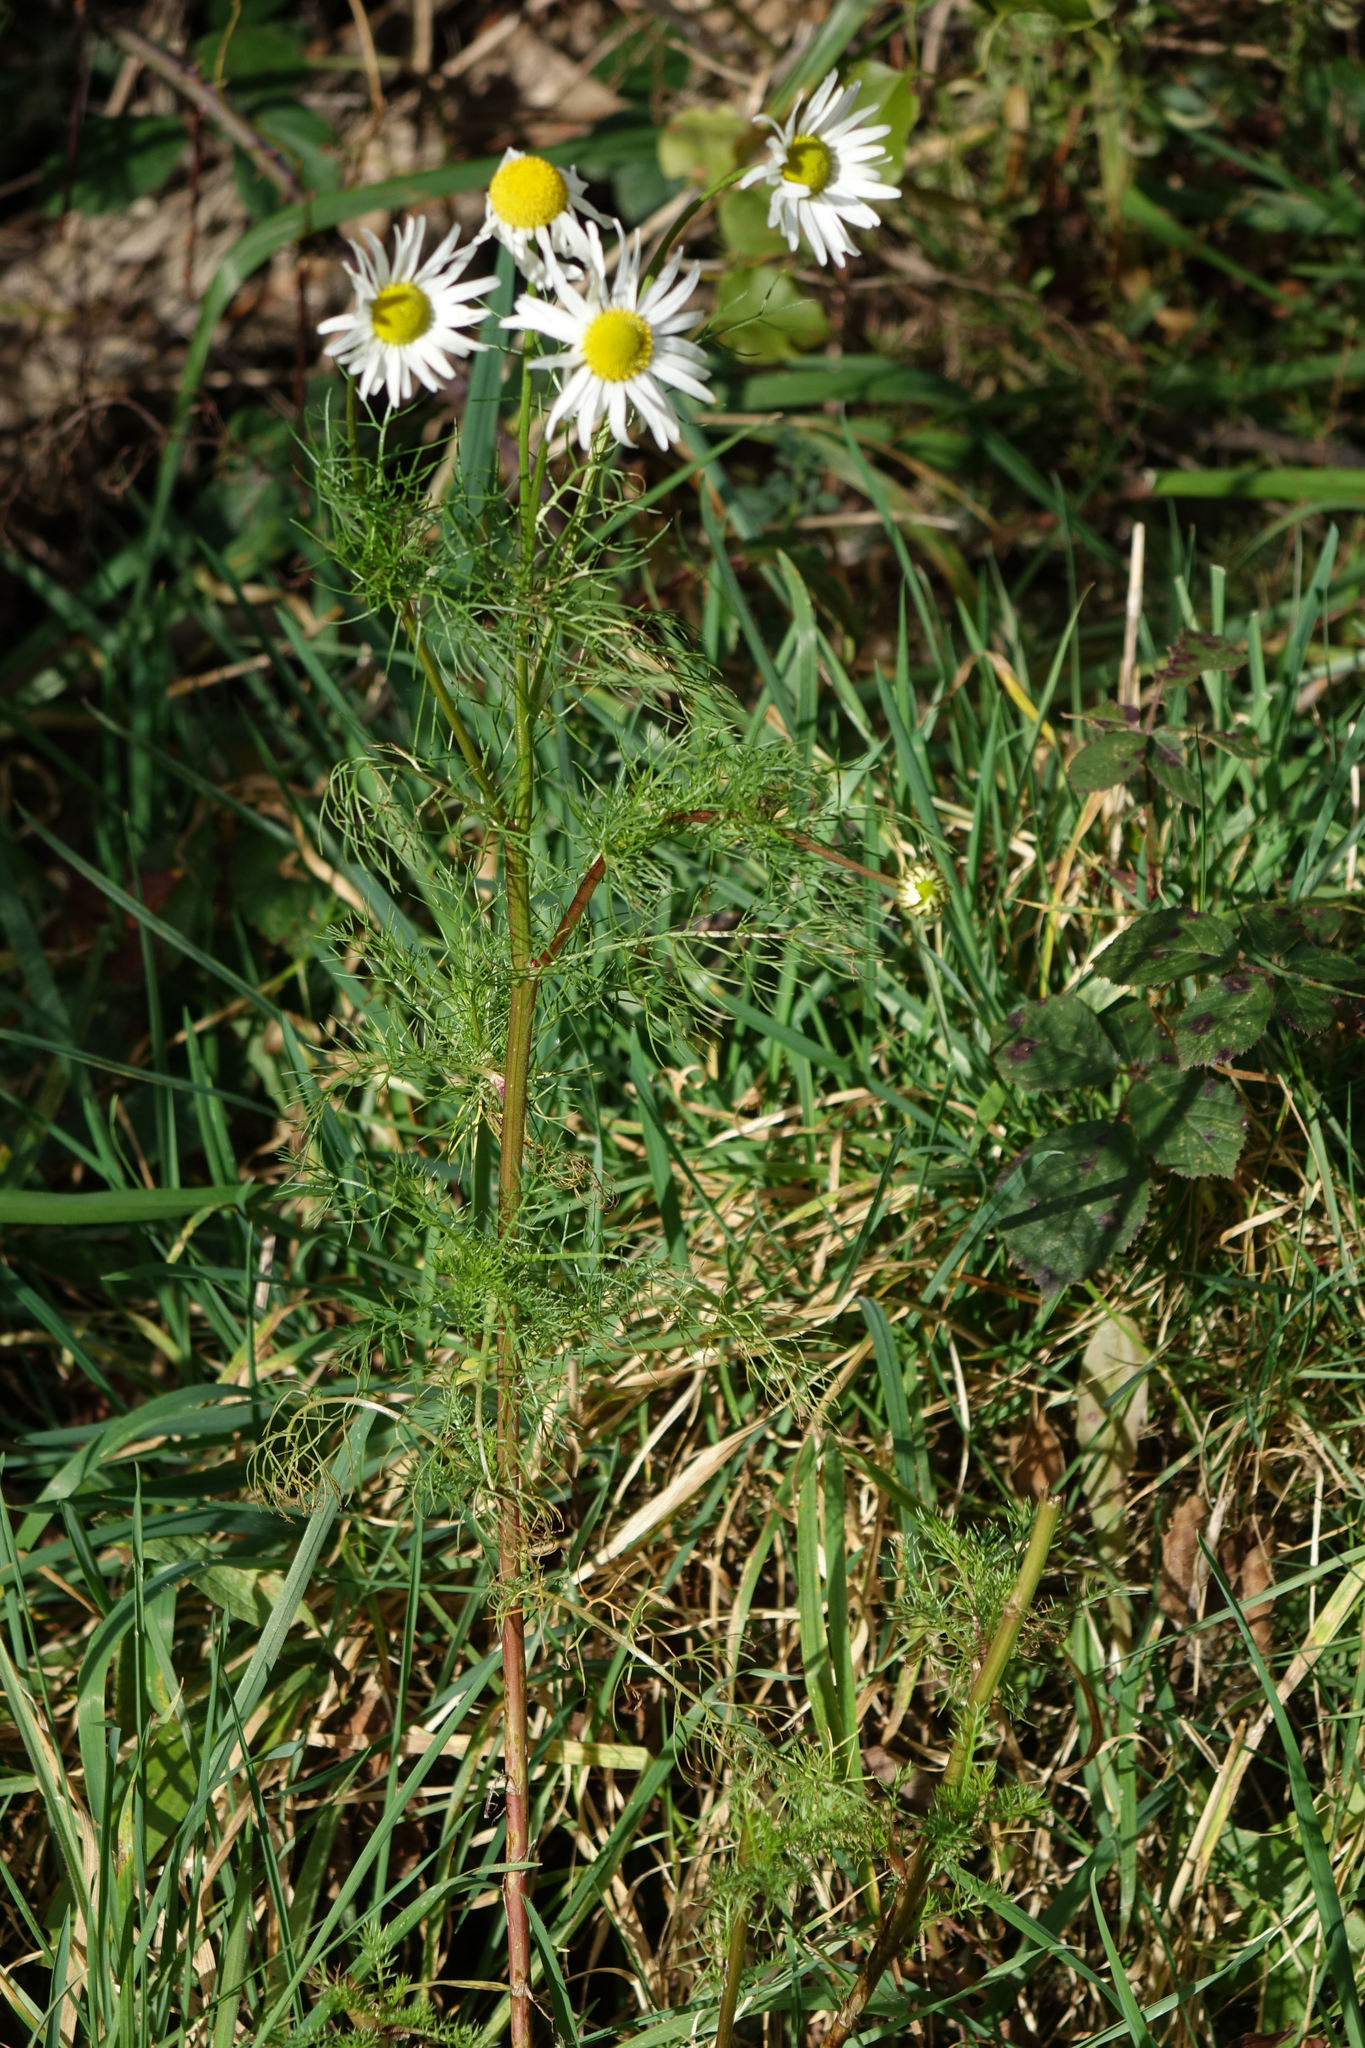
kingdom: Plantae
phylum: Tracheophyta
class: Magnoliopsida
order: Asterales
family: Asteraceae
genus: Tripleurospermum
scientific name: Tripleurospermum inodorum
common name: Scentless mayweed
